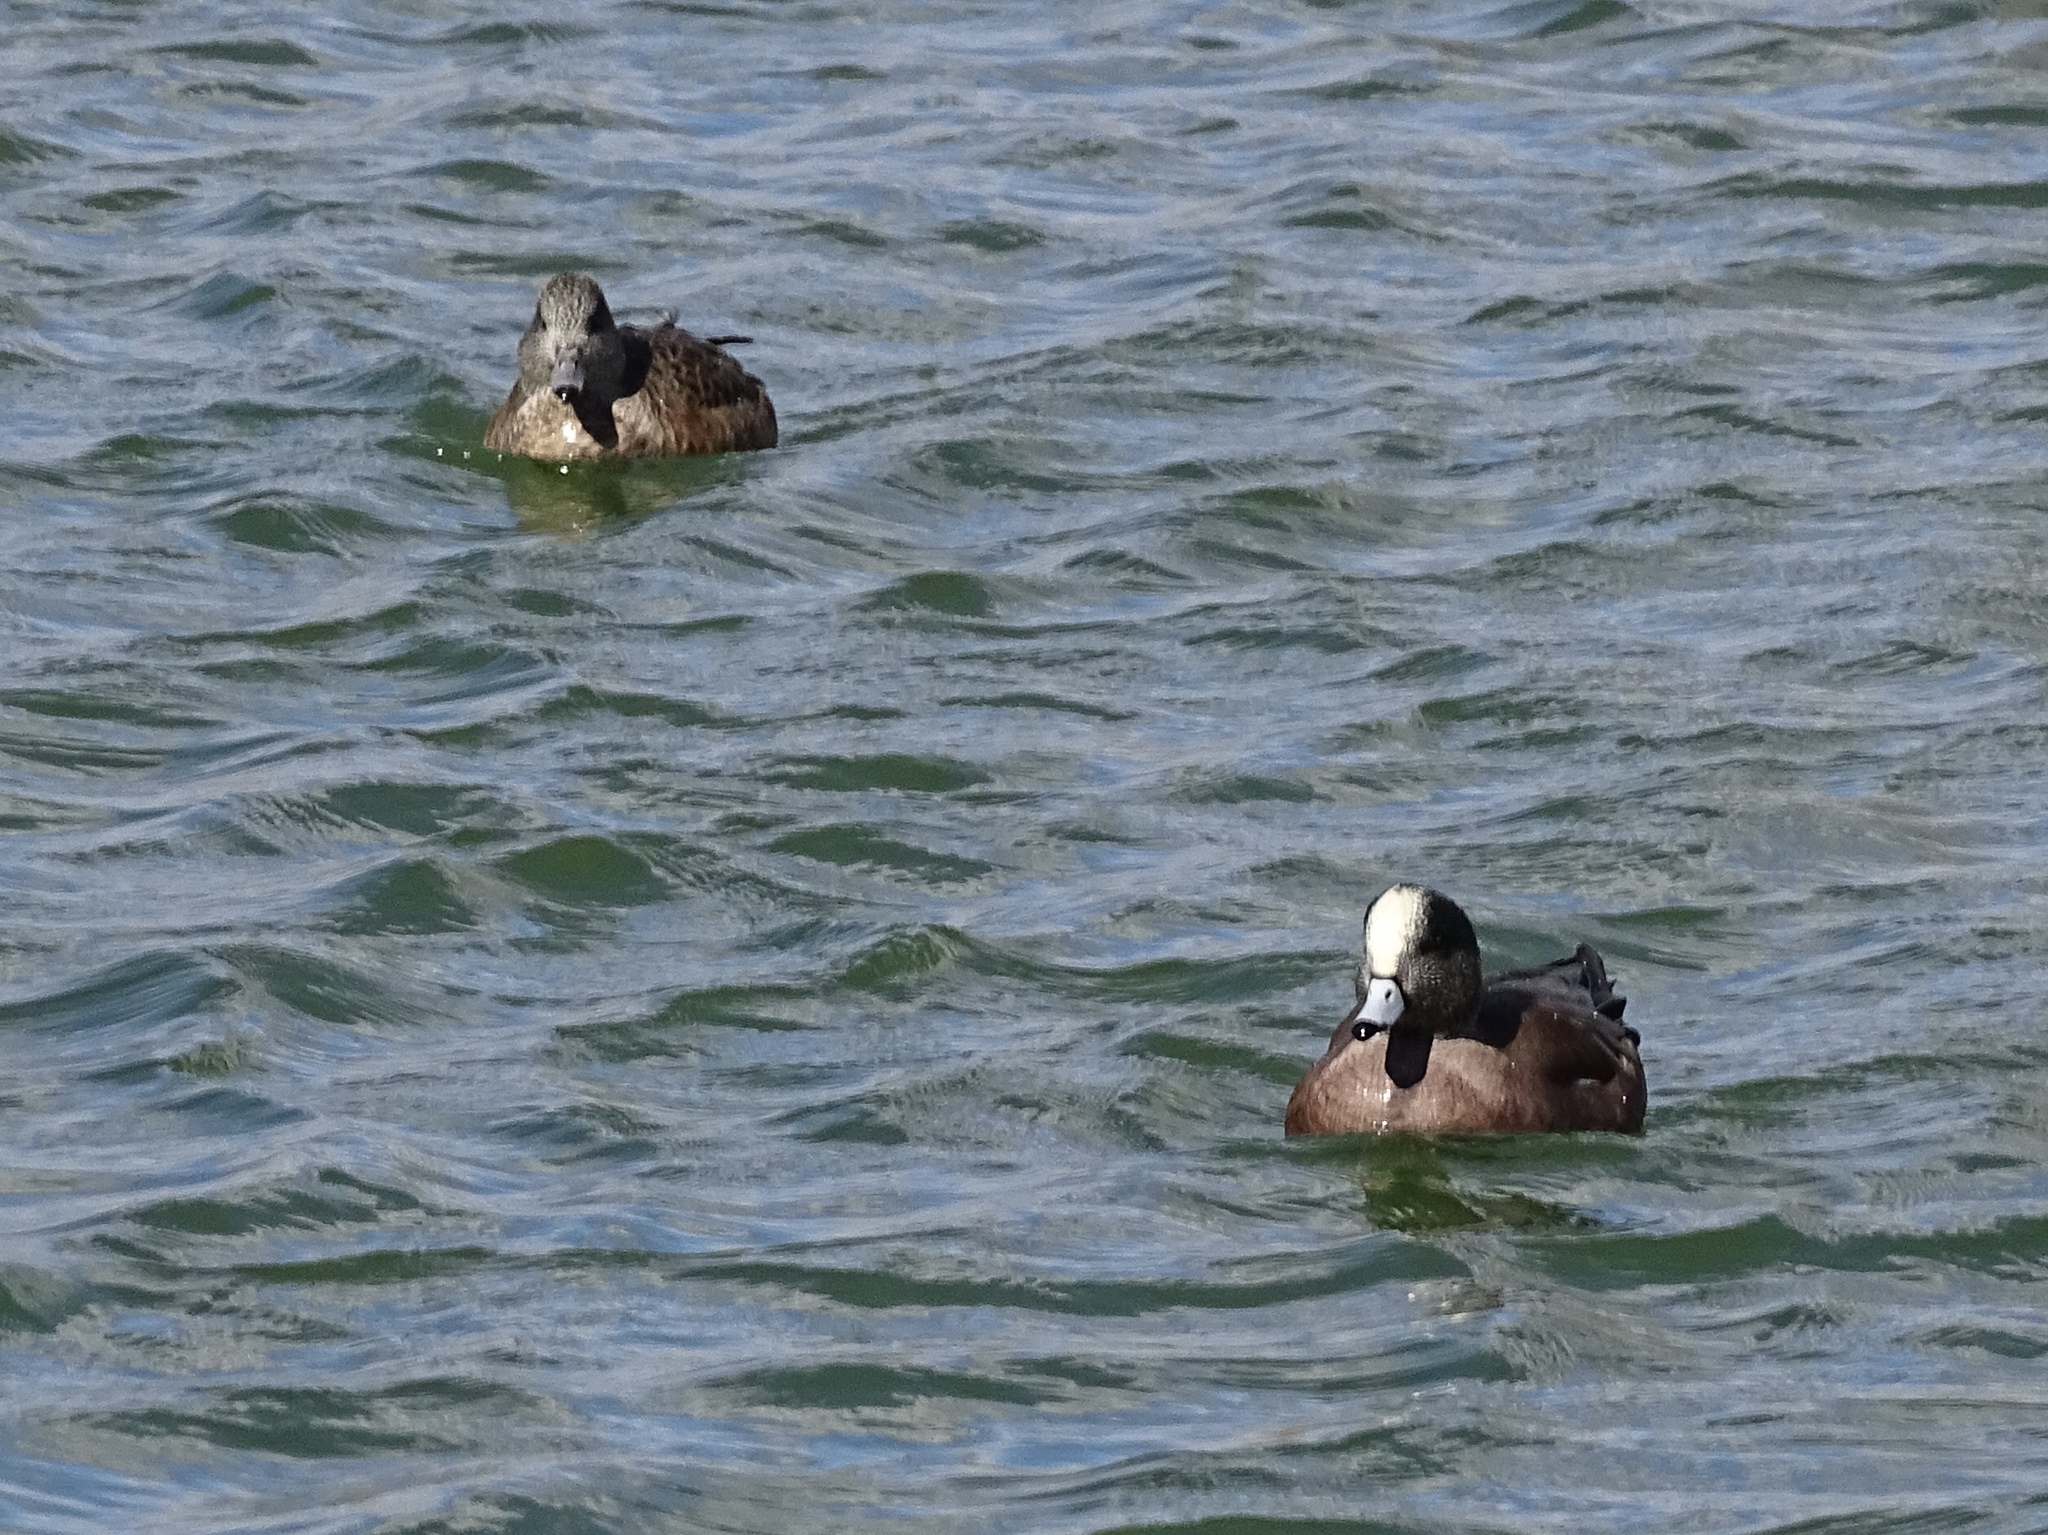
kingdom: Animalia
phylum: Chordata
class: Aves
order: Anseriformes
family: Anatidae
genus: Mareca
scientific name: Mareca americana
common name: American wigeon
